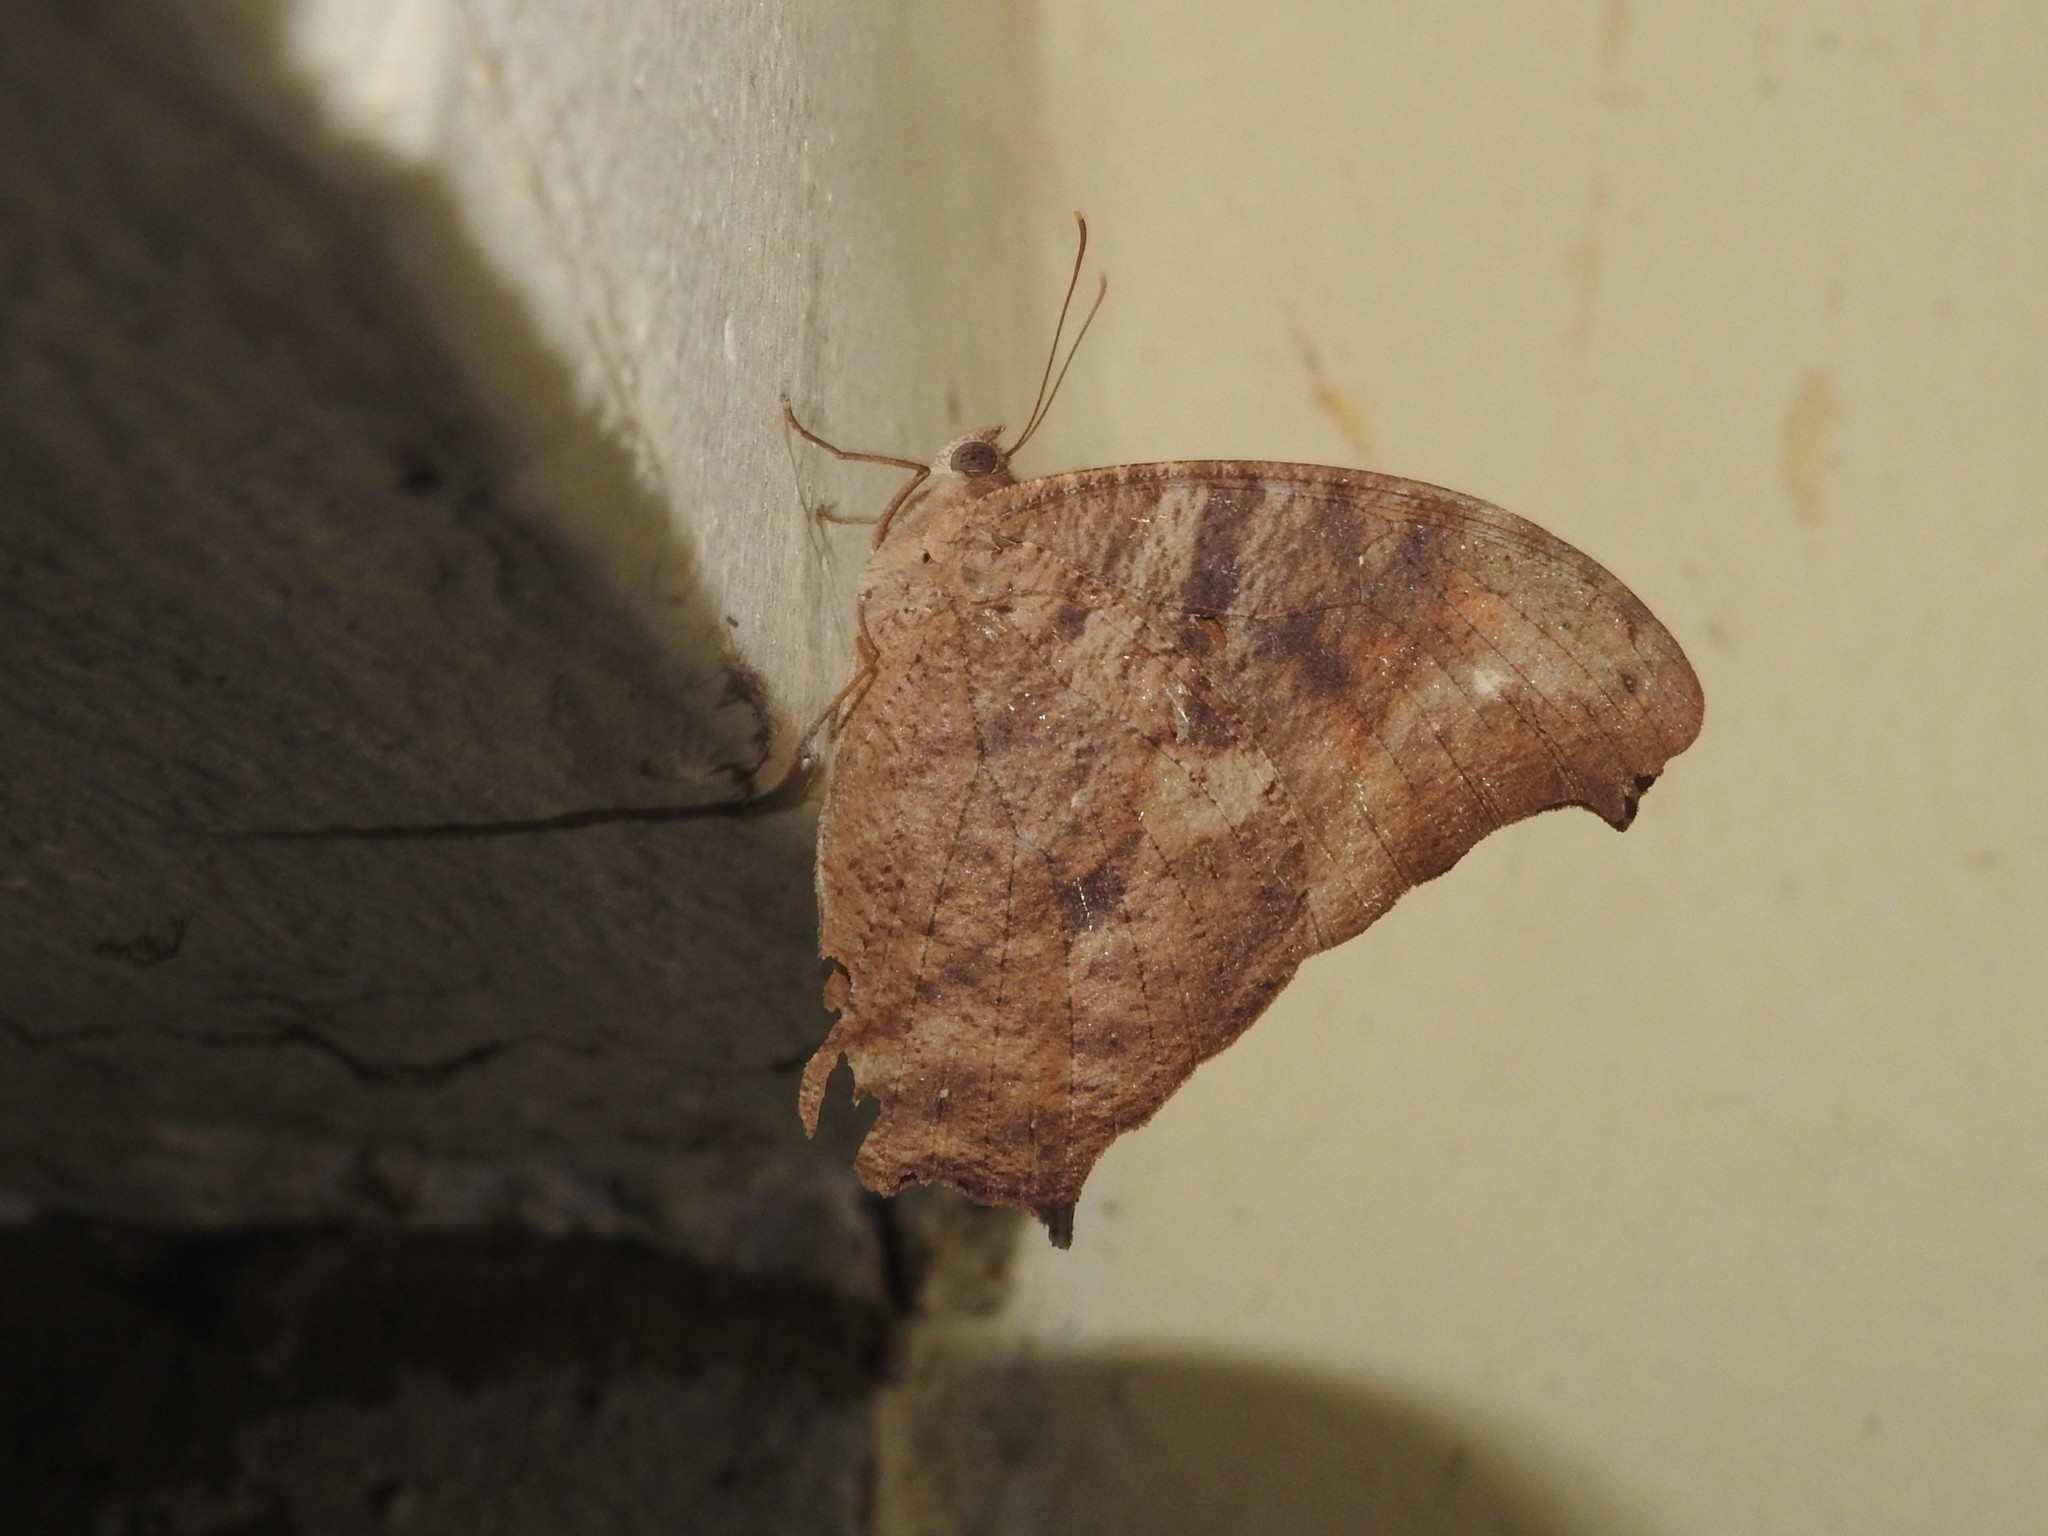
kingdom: Animalia
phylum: Arthropoda
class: Insecta
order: Lepidoptera
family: Nymphalidae
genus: Melanitis
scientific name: Melanitis leda
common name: Twilight brown
